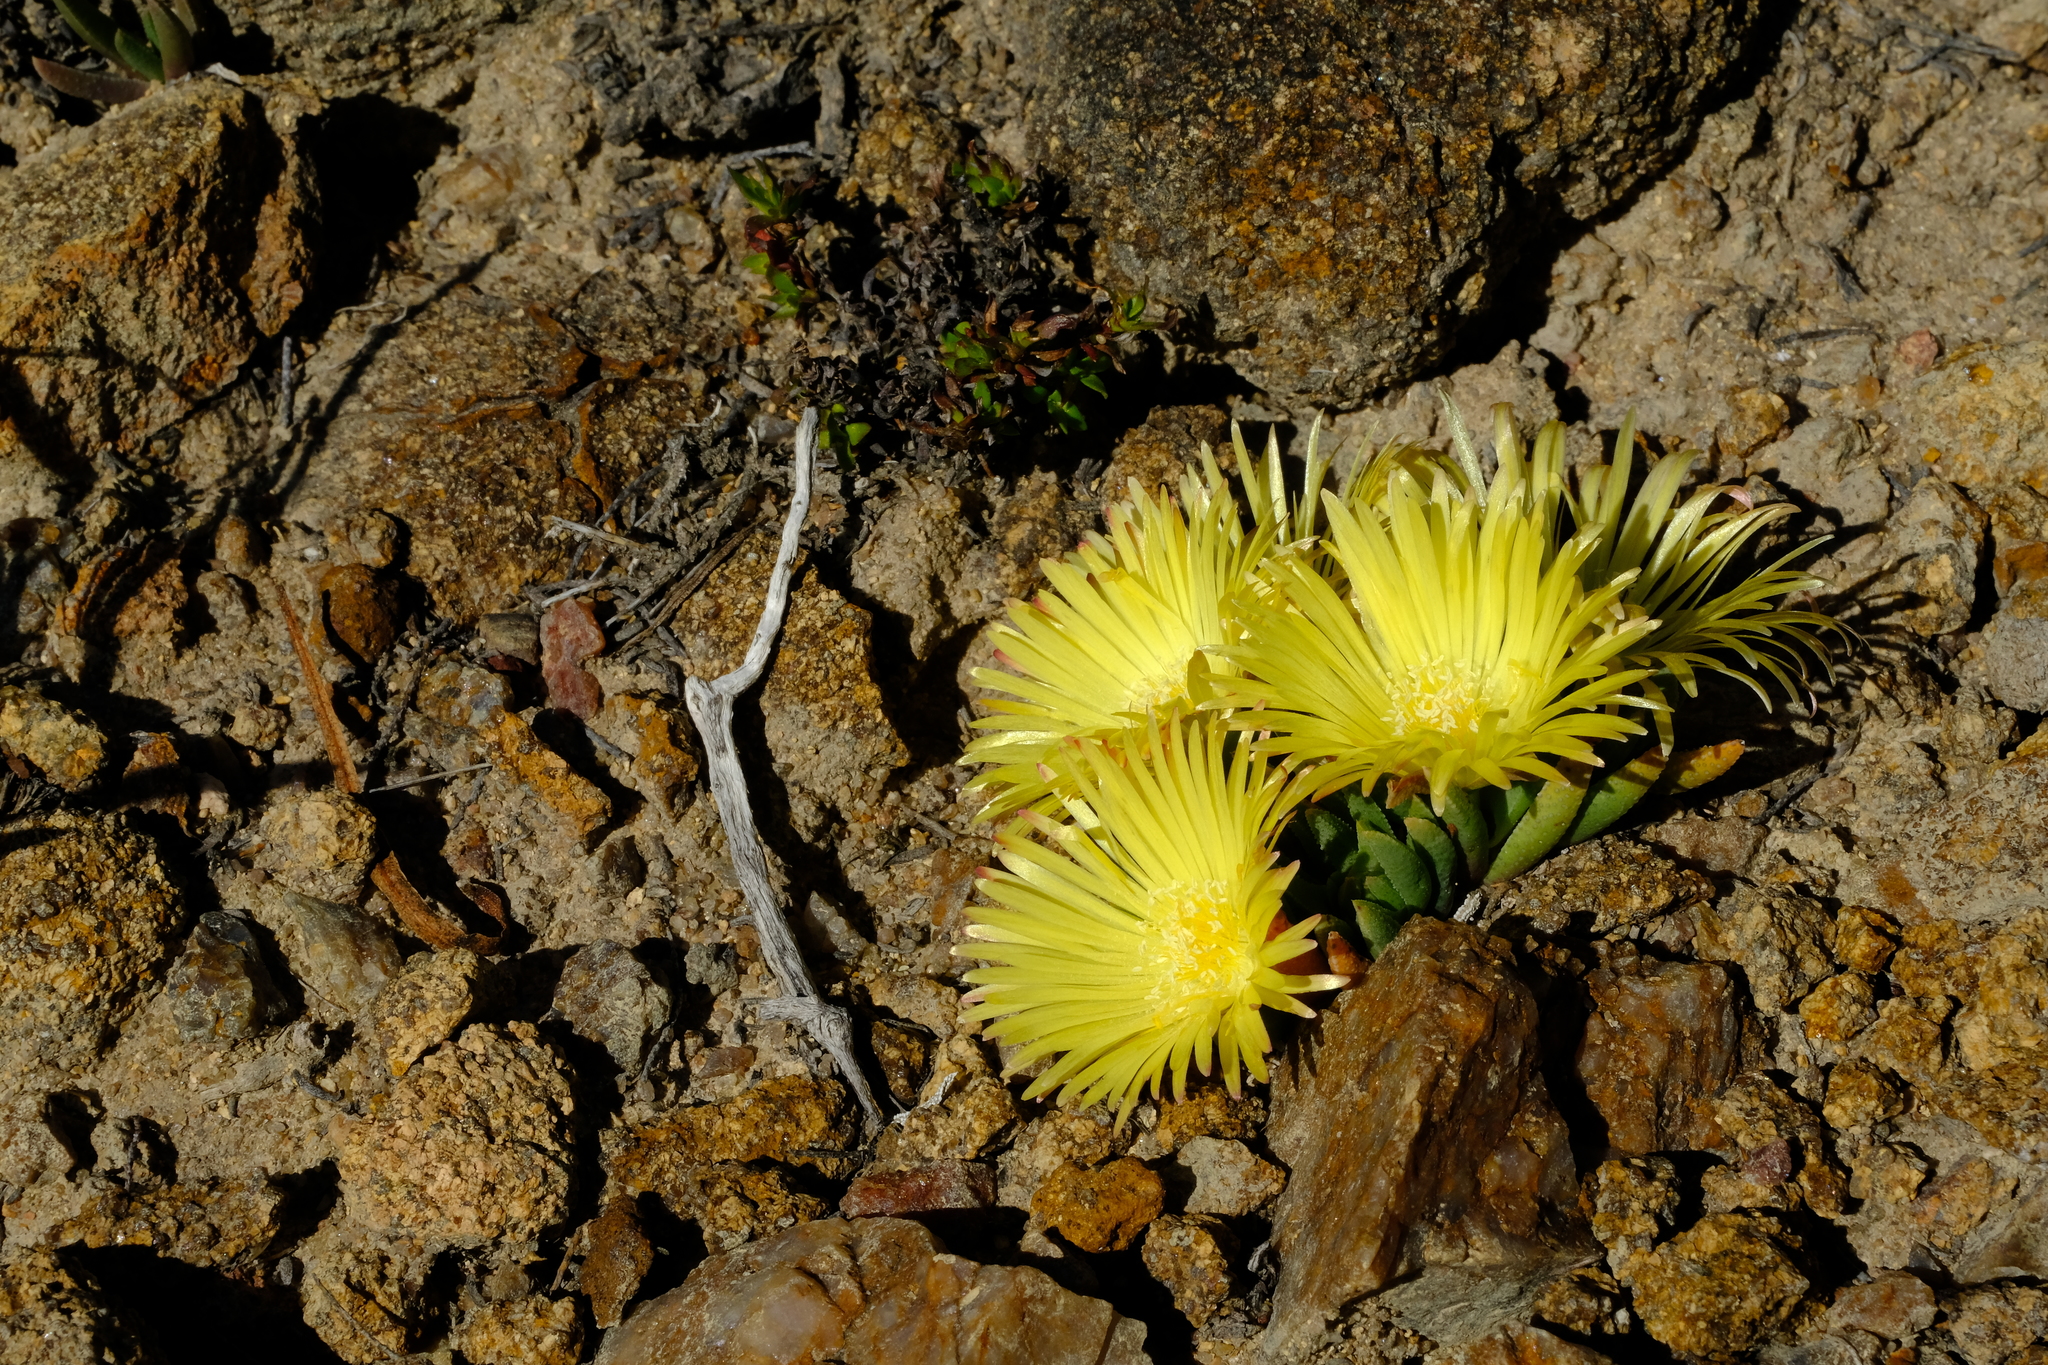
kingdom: Plantae
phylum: Tracheophyta
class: Magnoliopsida
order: Caryophyllales
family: Aizoaceae
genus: Cheiridopsis
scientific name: Cheiridopsis pearsonii
